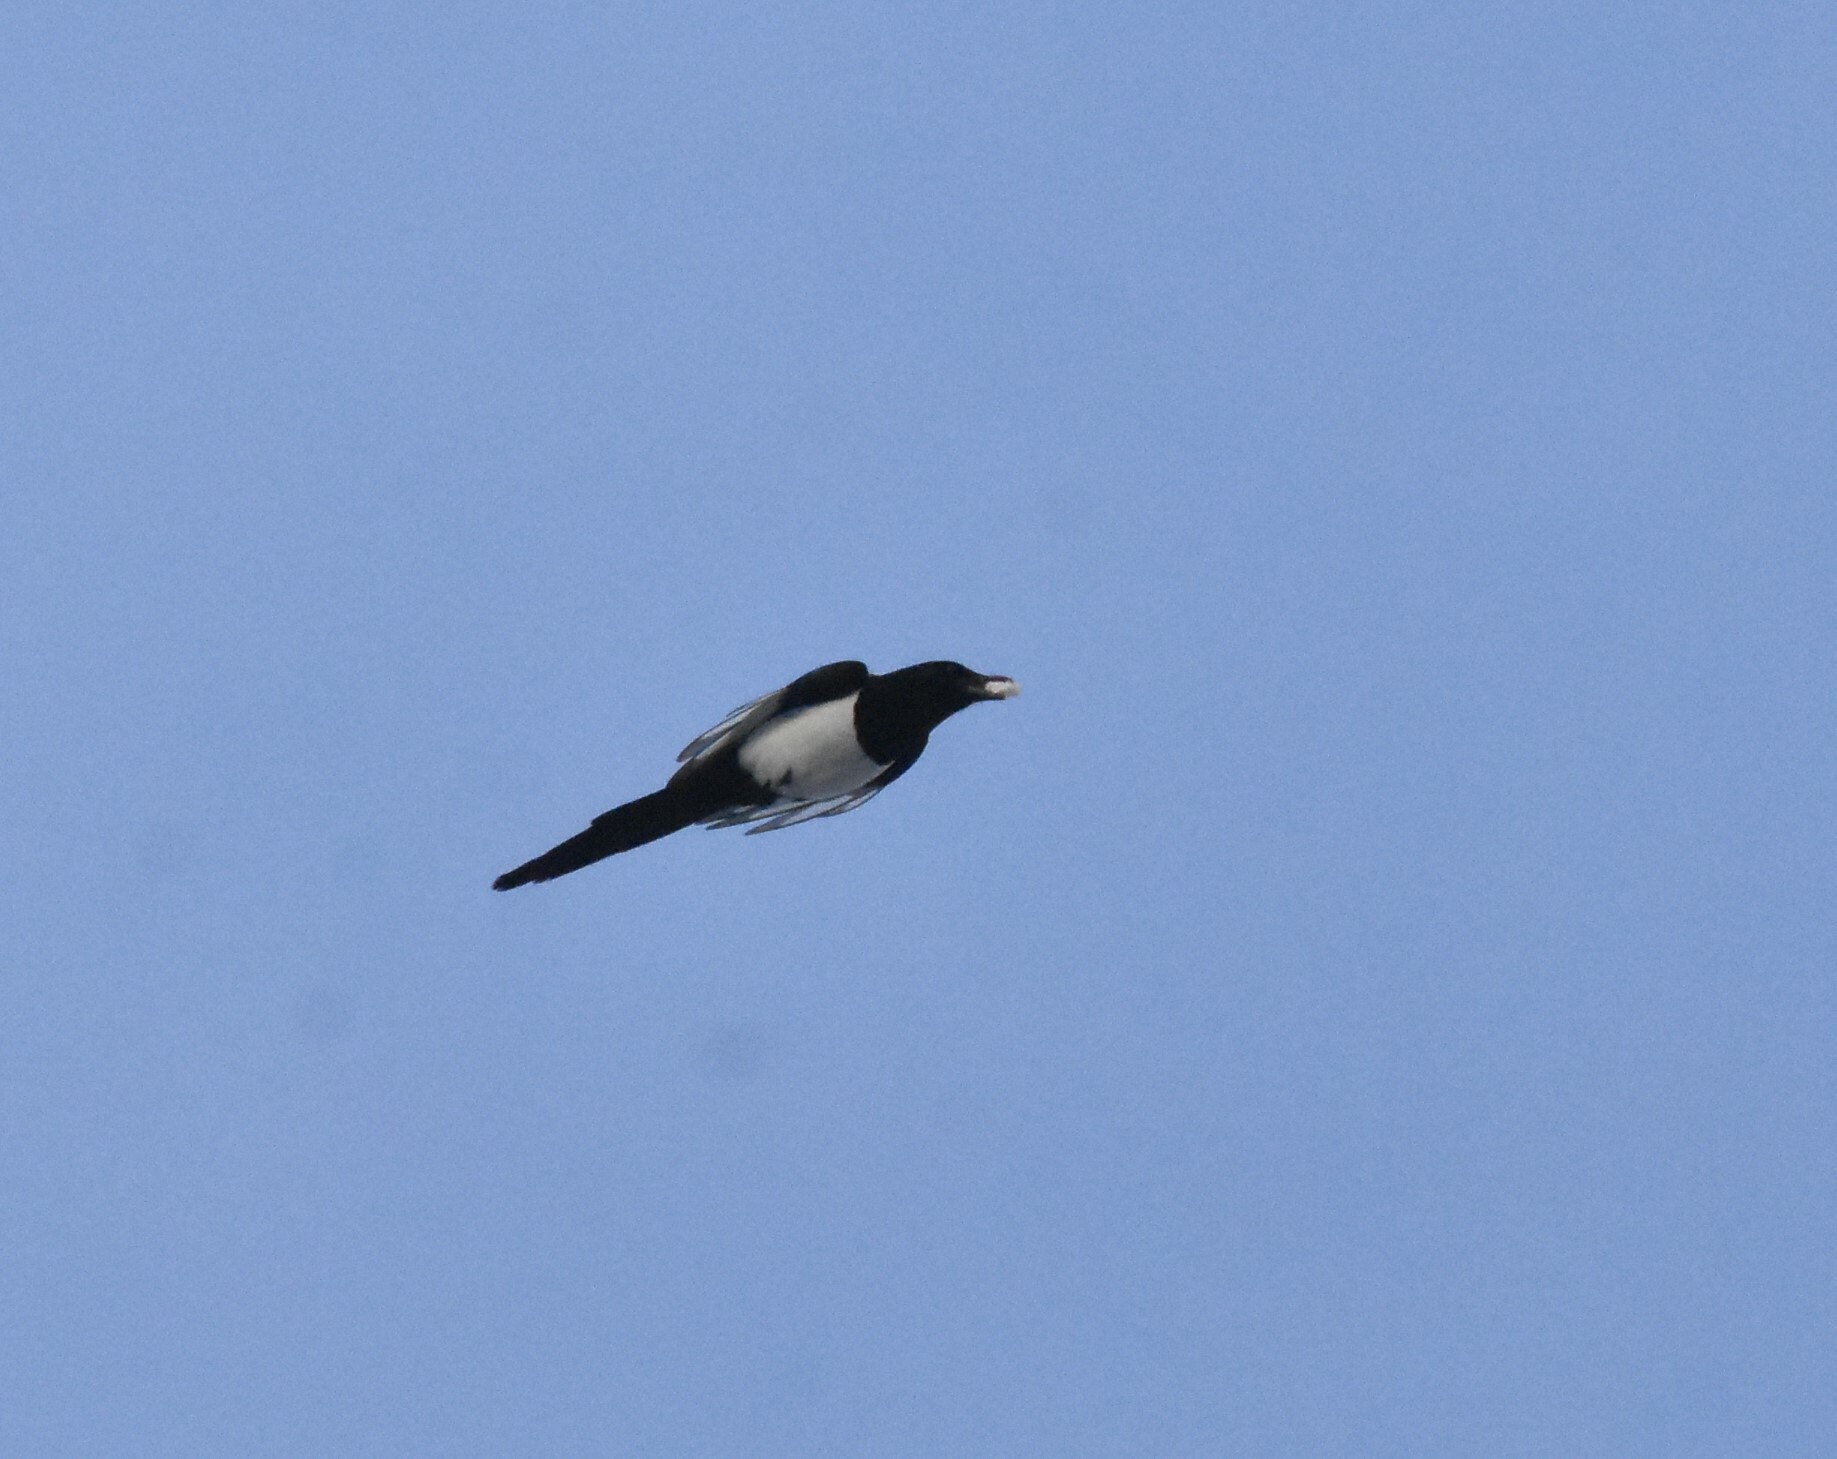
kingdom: Animalia
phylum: Chordata
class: Aves
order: Passeriformes
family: Corvidae
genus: Pica
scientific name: Pica pica
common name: Eurasian magpie
